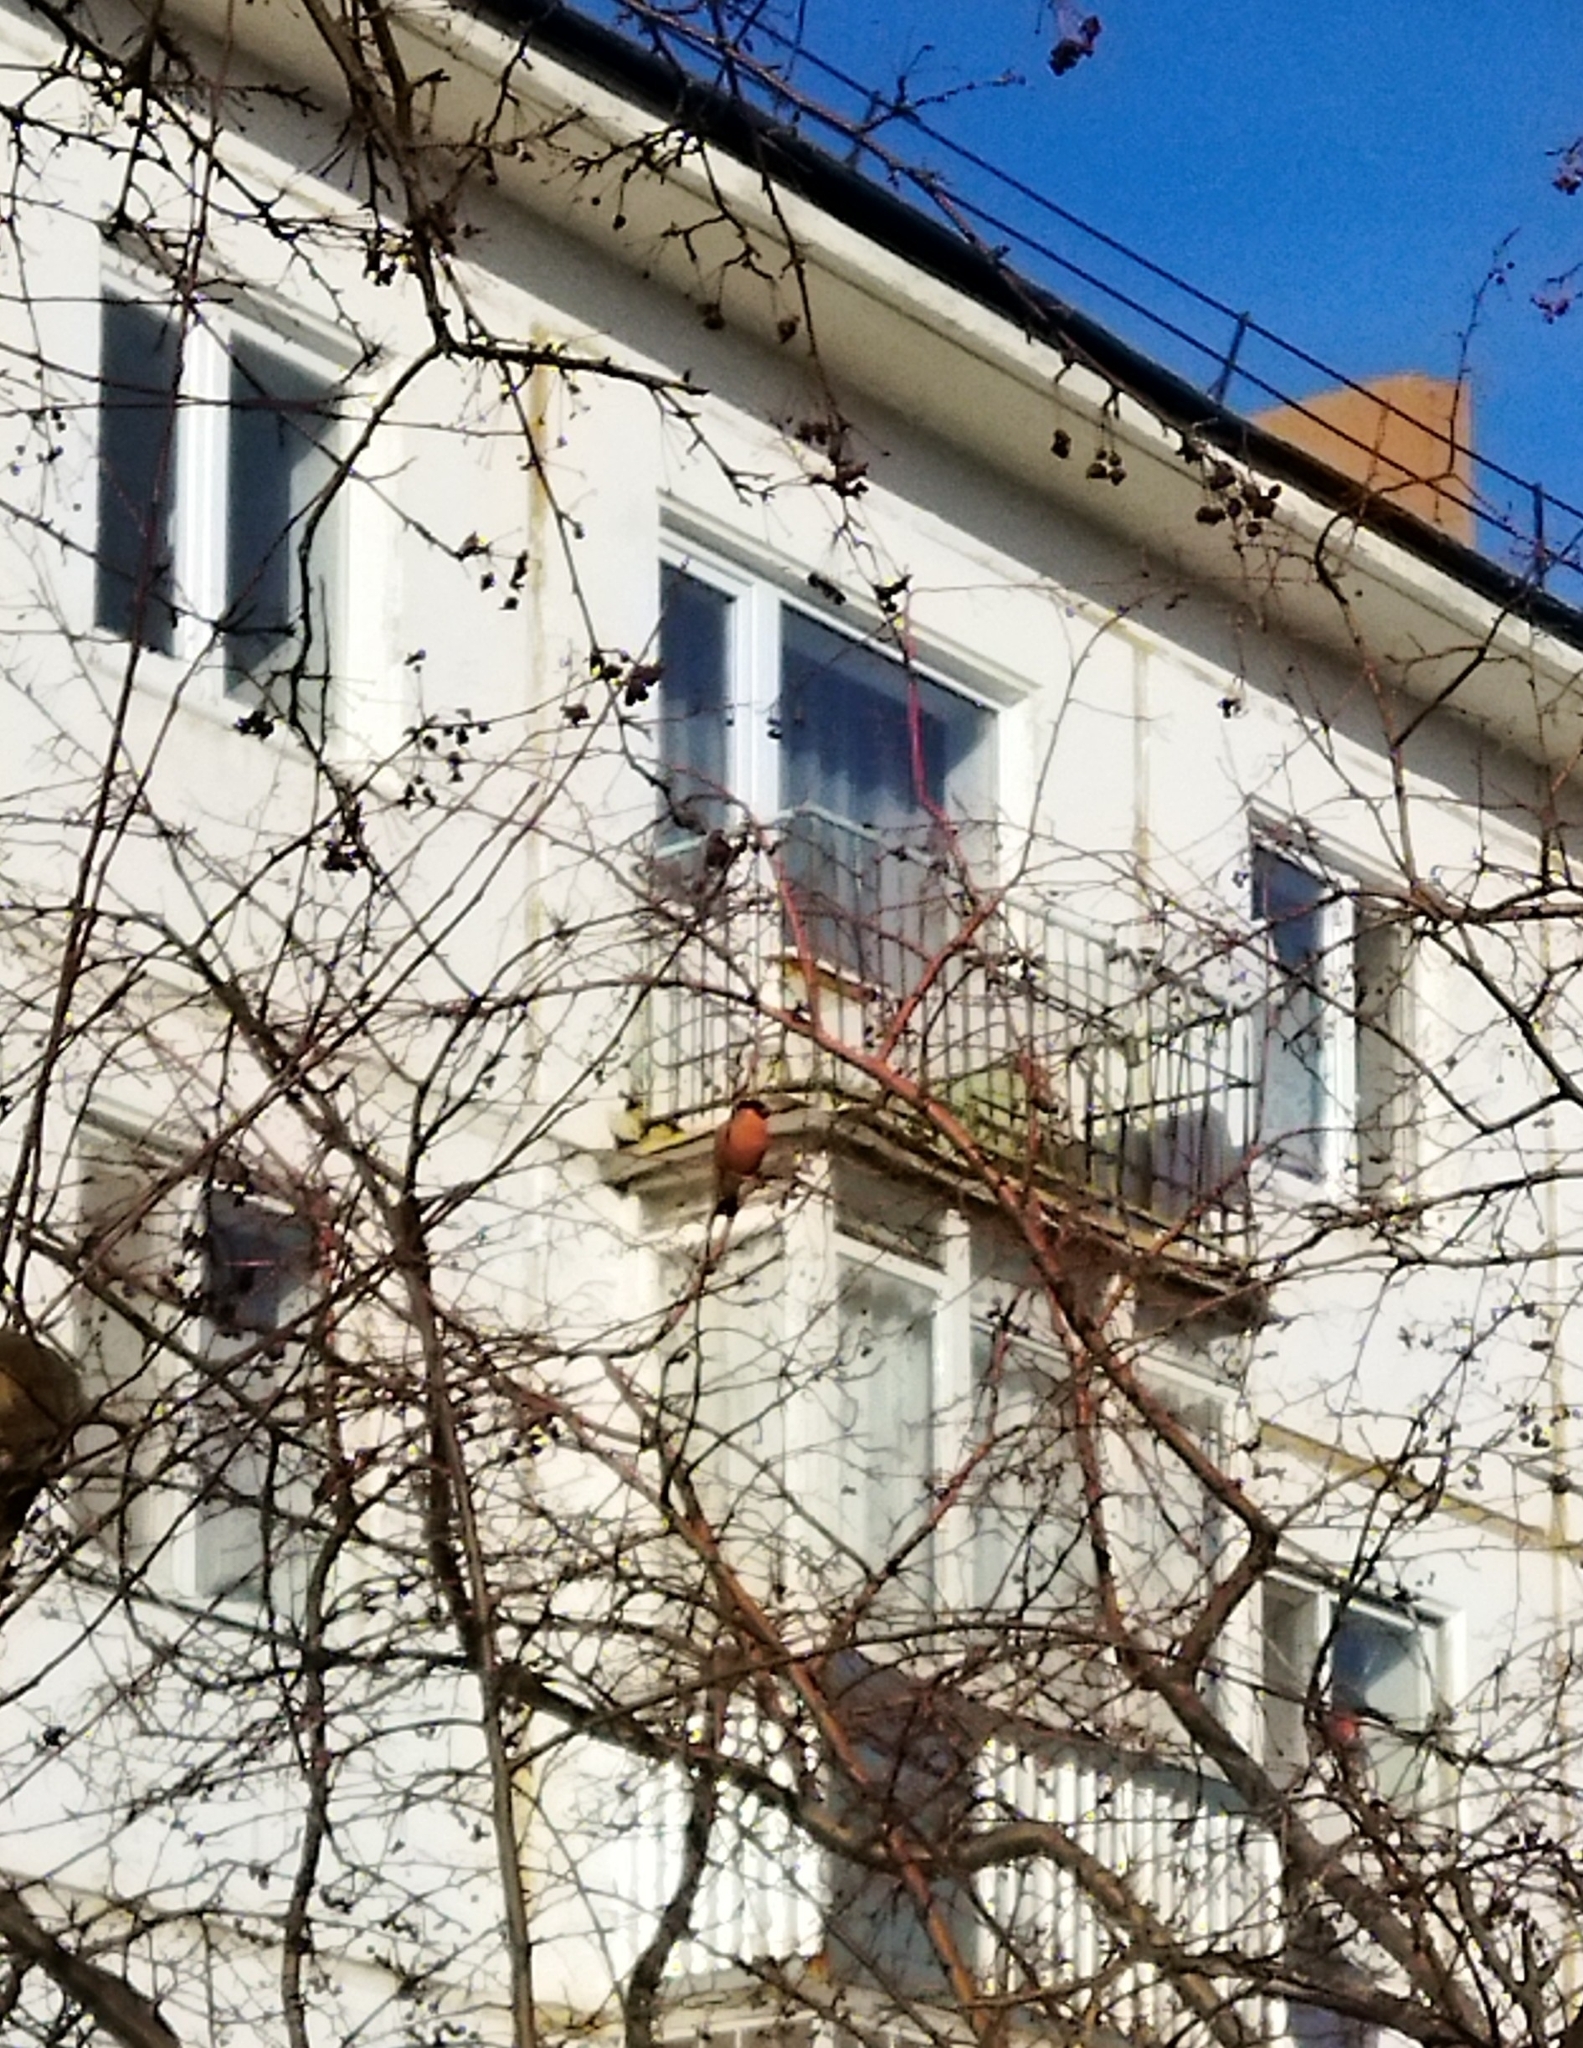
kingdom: Animalia
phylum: Chordata
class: Aves
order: Passeriformes
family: Fringillidae
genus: Pyrrhula
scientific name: Pyrrhula pyrrhula
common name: Eurasian bullfinch
